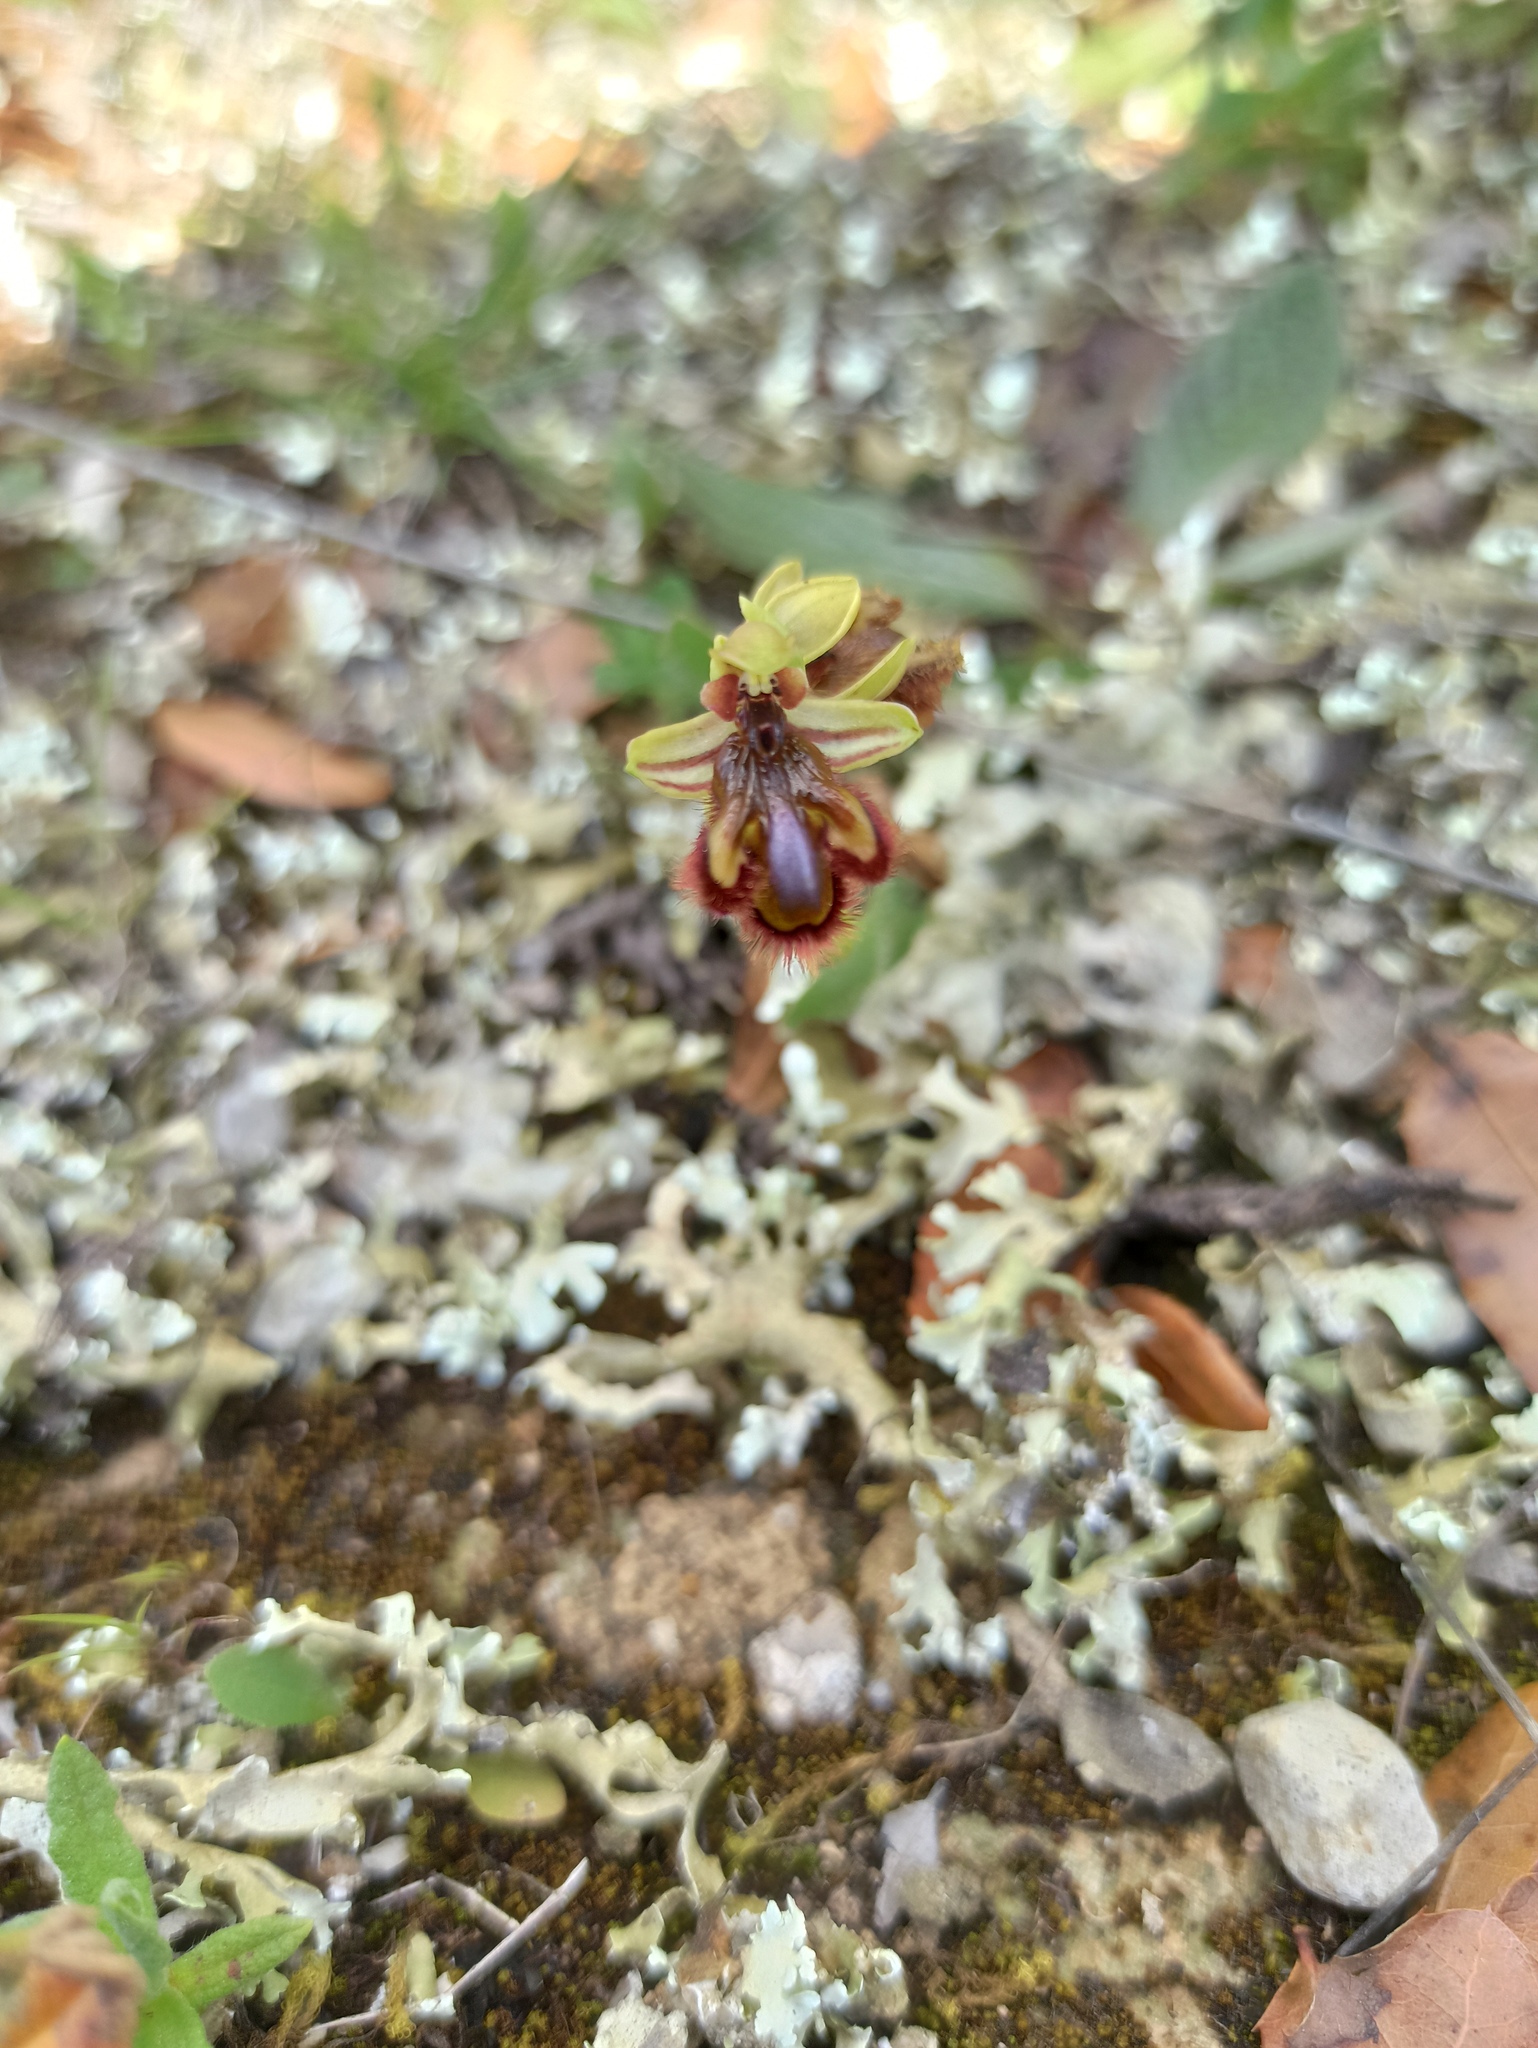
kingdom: Plantae
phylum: Tracheophyta
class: Liliopsida
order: Asparagales
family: Orchidaceae
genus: Ophrys
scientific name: Ophrys speculum
